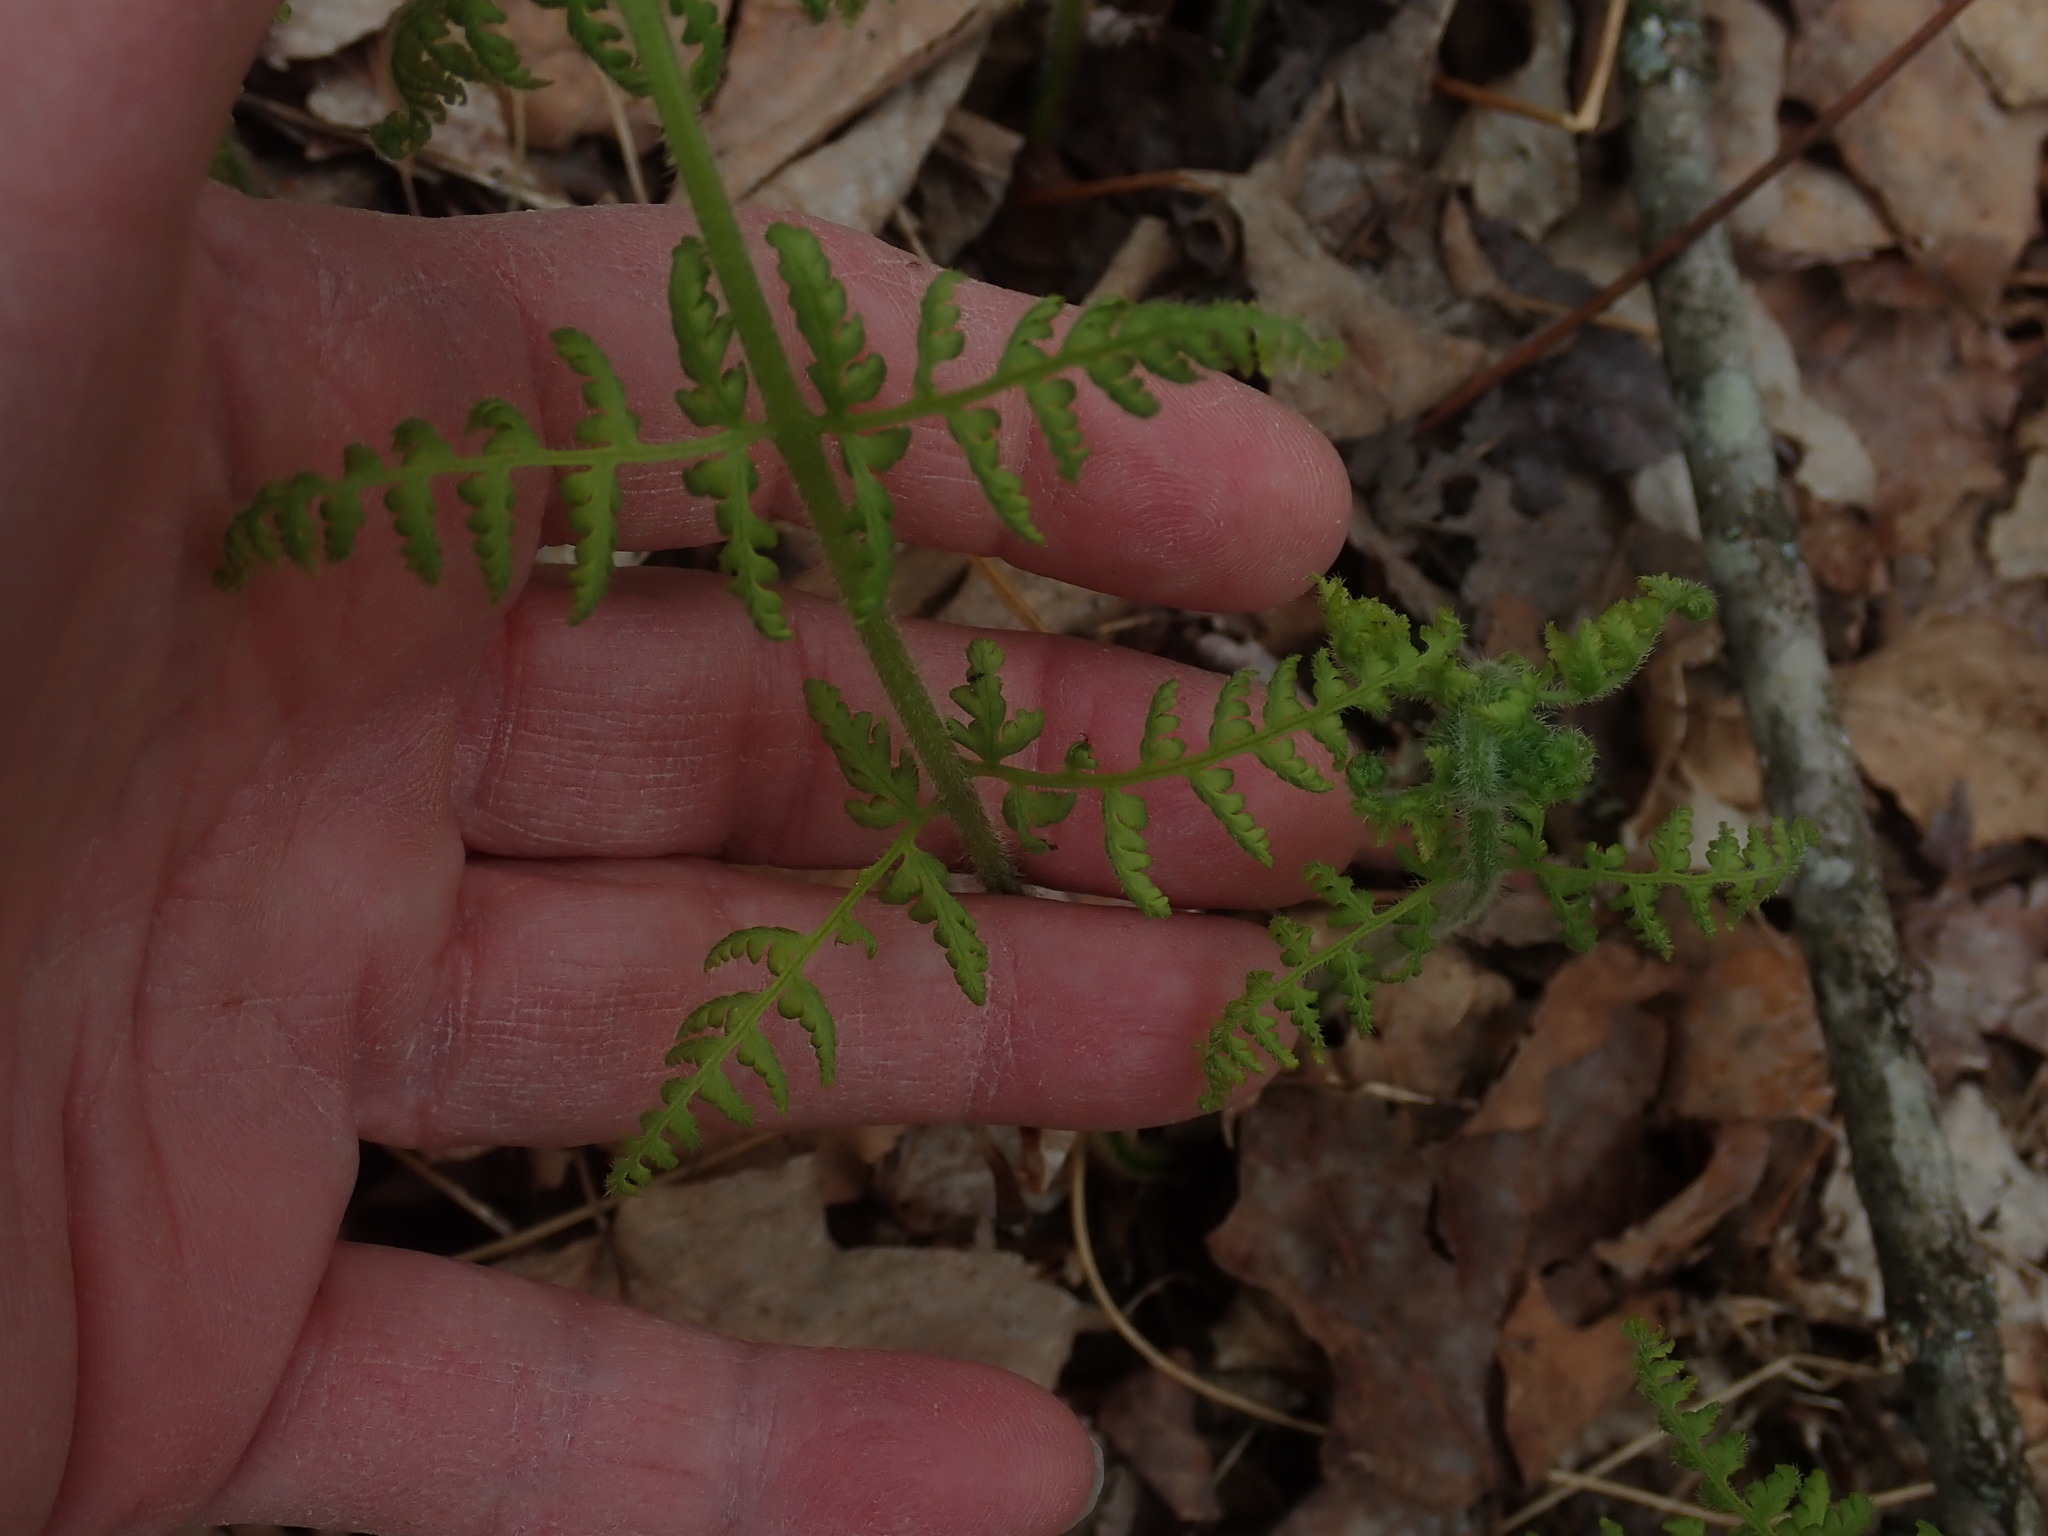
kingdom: Plantae
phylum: Tracheophyta
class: Polypodiopsida
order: Polypodiales
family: Dennstaedtiaceae
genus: Sitobolium
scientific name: Sitobolium punctilobum
